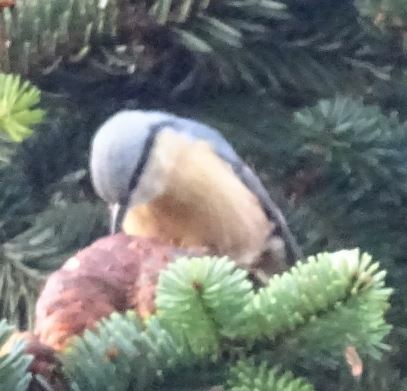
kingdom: Animalia
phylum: Chordata
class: Aves
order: Passeriformes
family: Sittidae
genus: Sitta
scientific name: Sitta europaea
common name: Eurasian nuthatch
